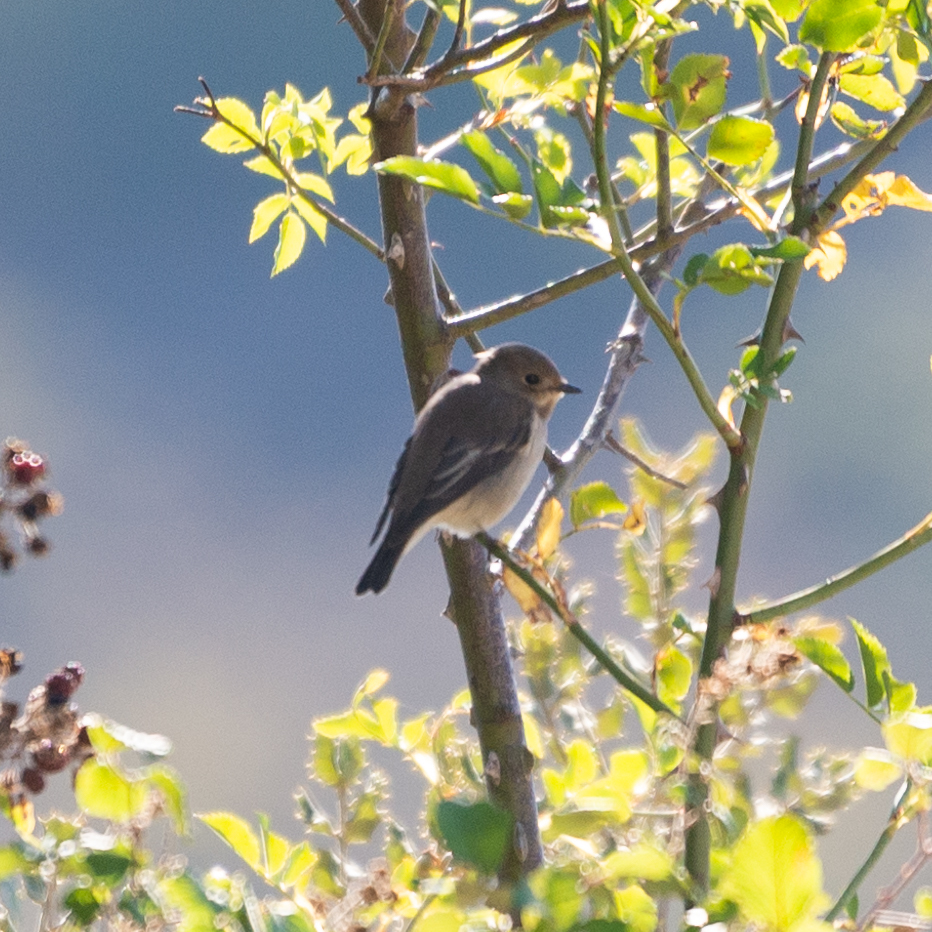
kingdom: Animalia
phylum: Chordata
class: Aves
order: Passeriformes
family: Muscicapidae
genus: Ficedula
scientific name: Ficedula hypoleuca
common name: European pied flycatcher
